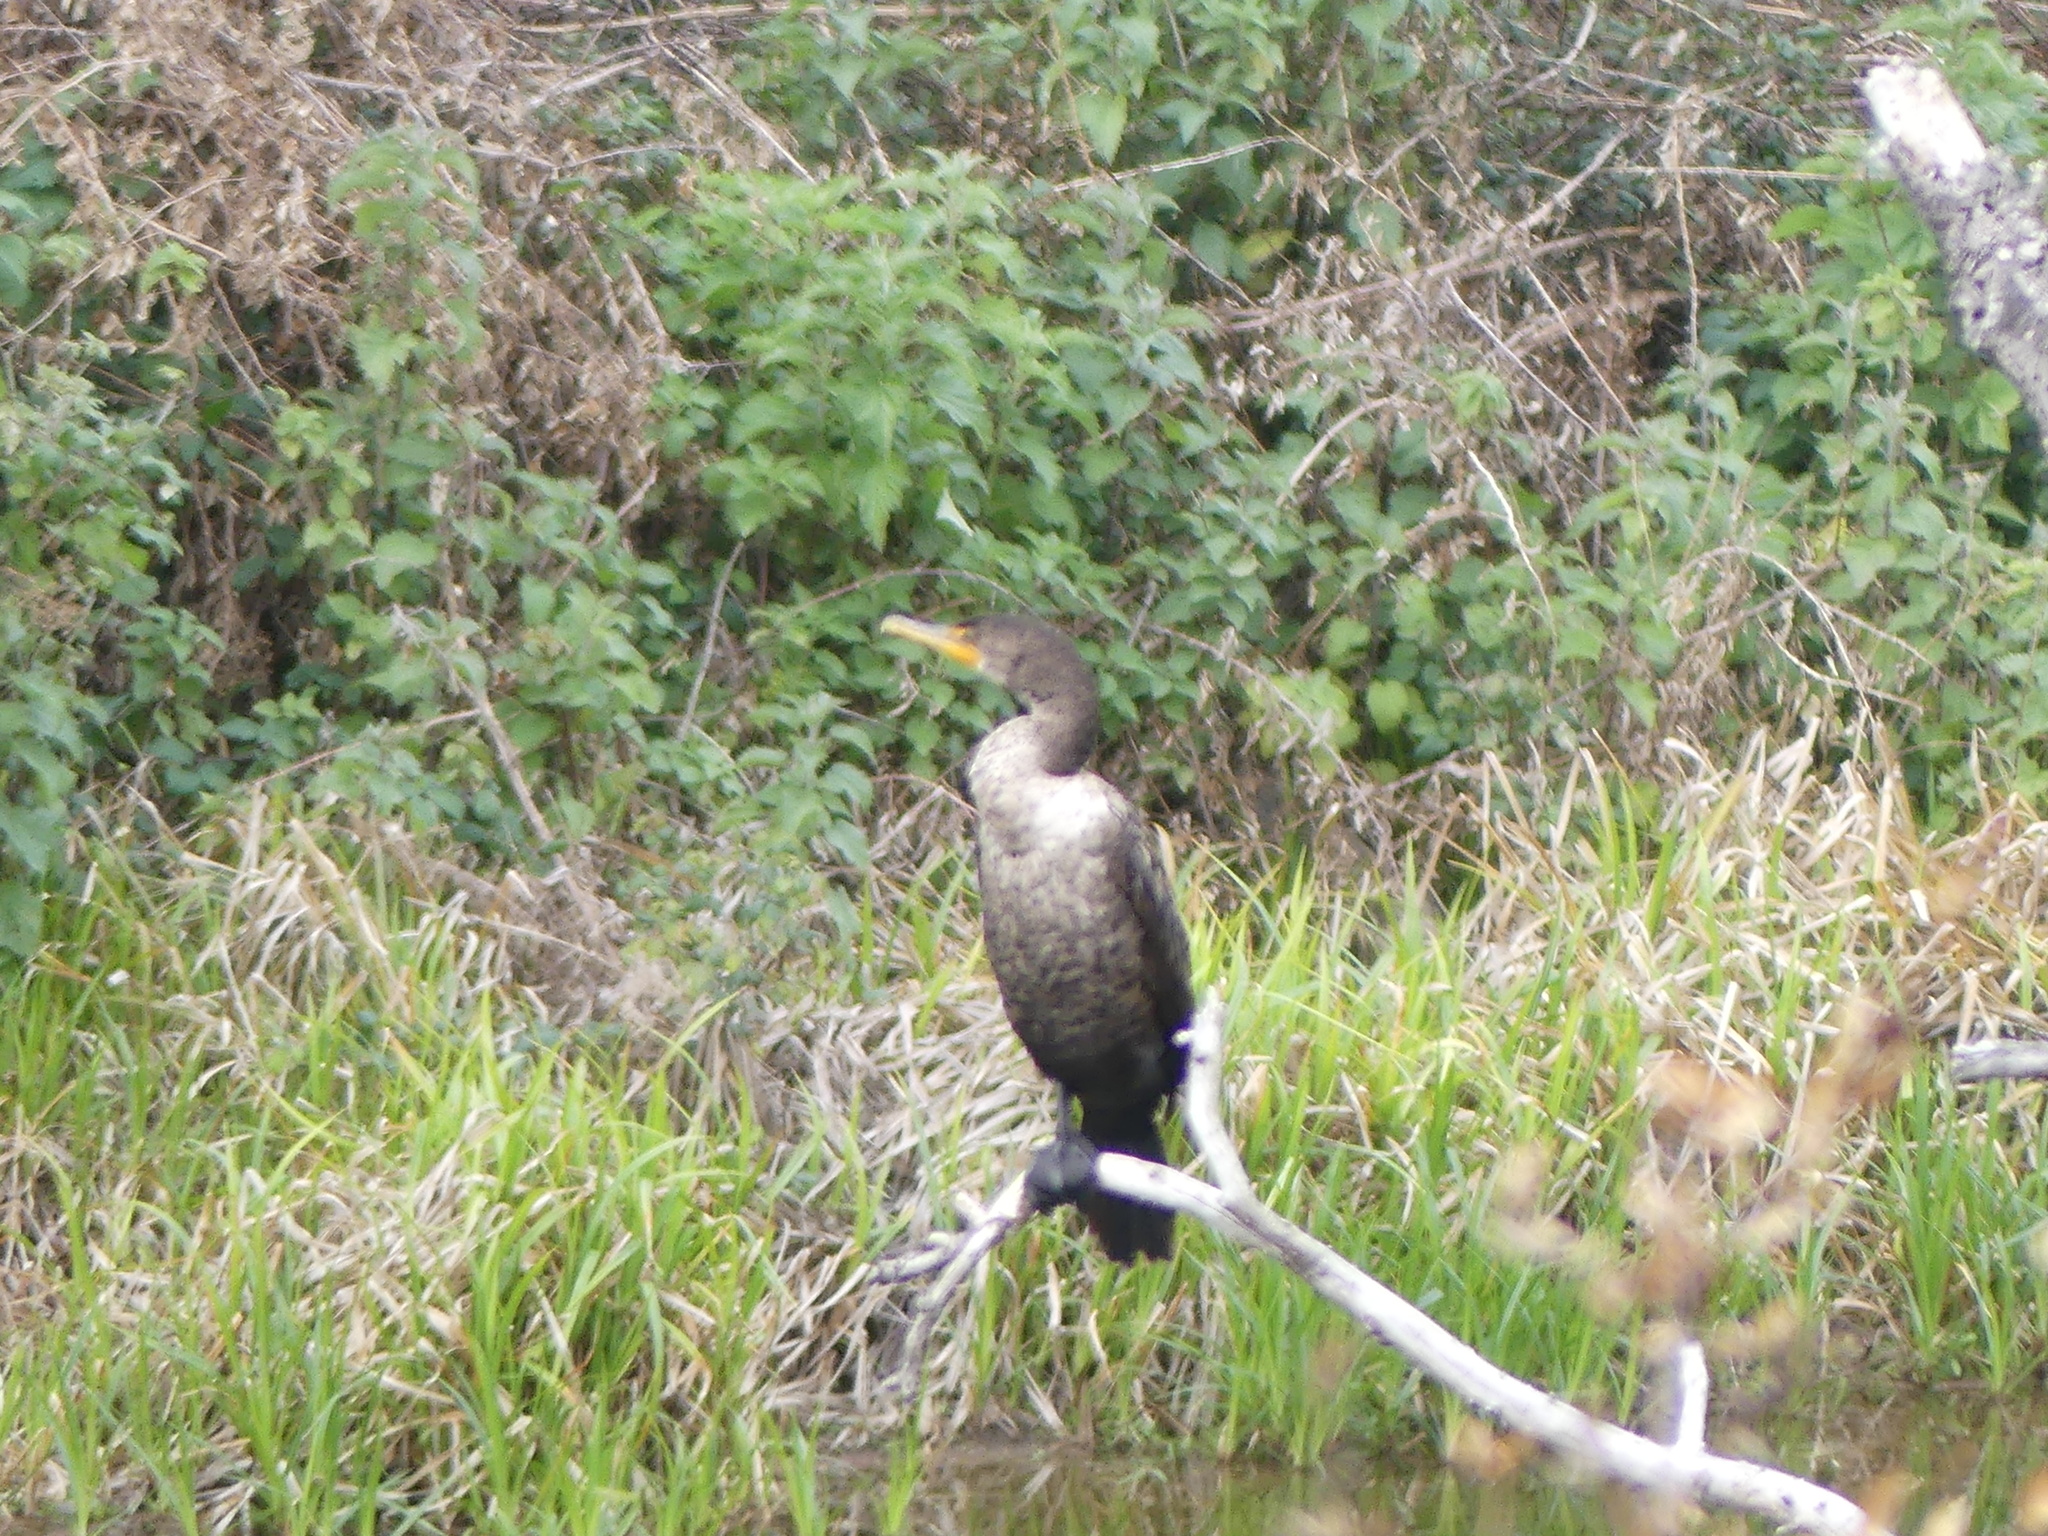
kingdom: Animalia
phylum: Chordata
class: Aves
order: Suliformes
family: Phalacrocoracidae
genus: Phalacrocorax
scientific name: Phalacrocorax auritus
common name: Double-crested cormorant
